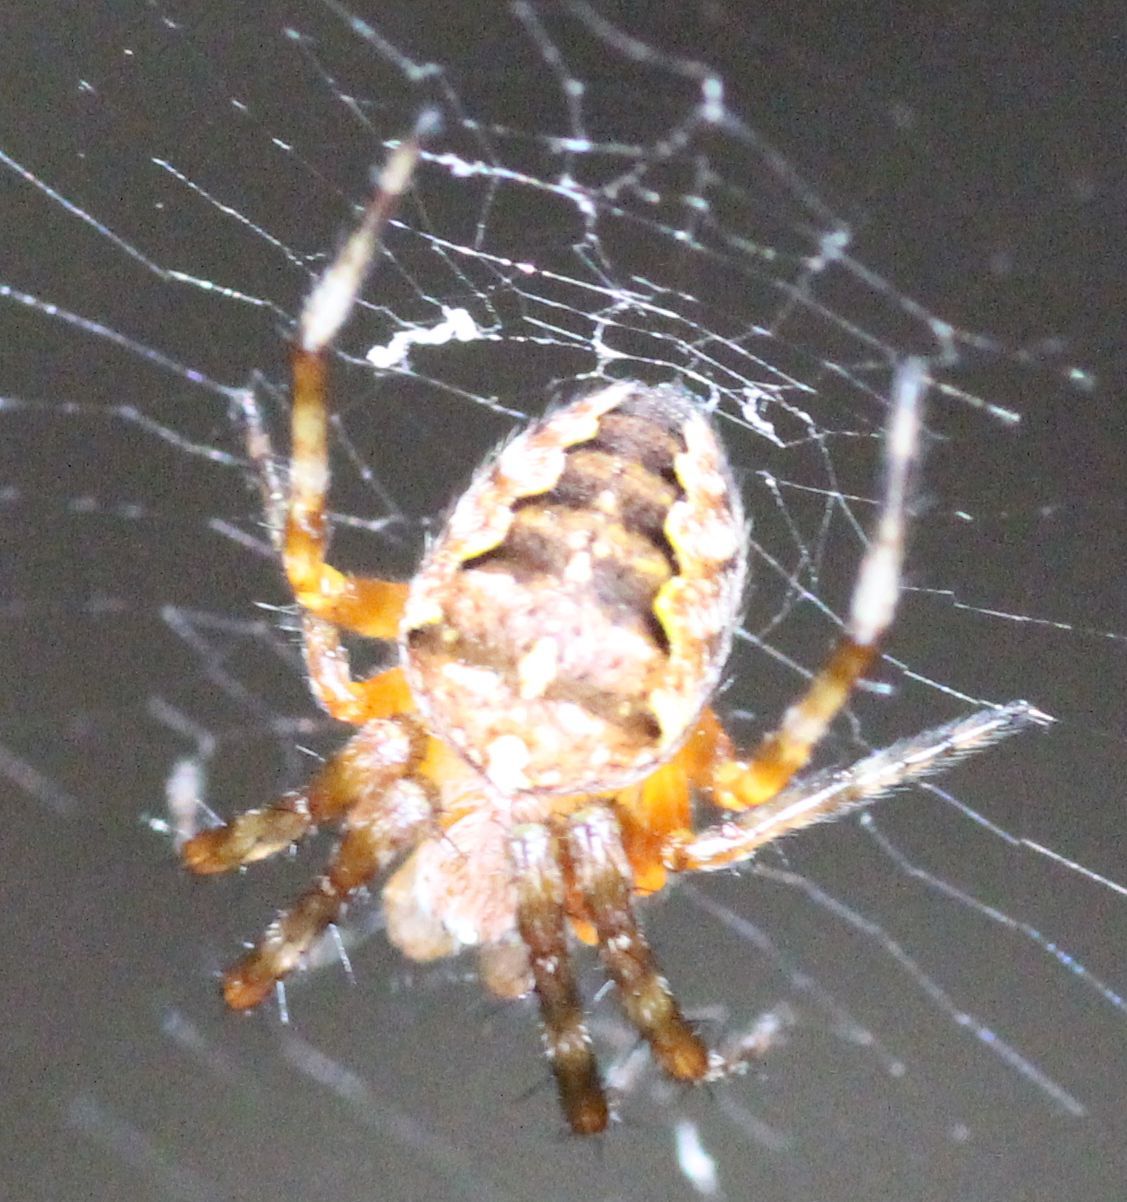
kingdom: Animalia
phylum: Arthropoda
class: Arachnida
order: Araneae
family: Araneidae
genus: Araneus
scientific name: Araneus diadematus
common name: Cross orbweaver
